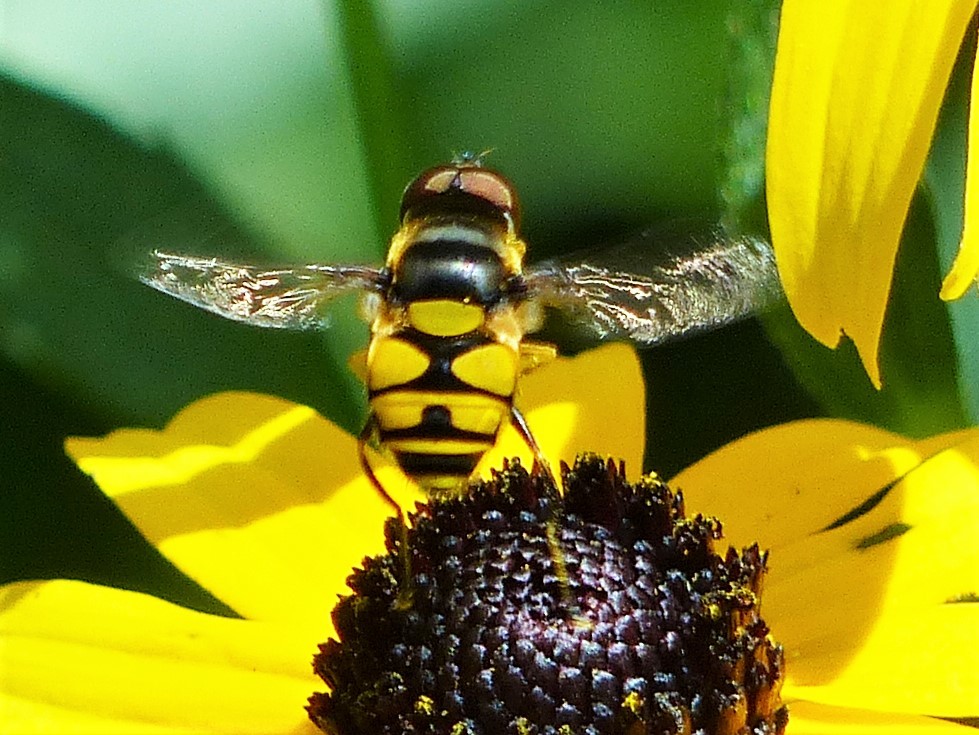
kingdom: Animalia
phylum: Arthropoda
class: Insecta
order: Diptera
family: Syrphidae
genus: Eristalis
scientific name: Eristalis transversa
